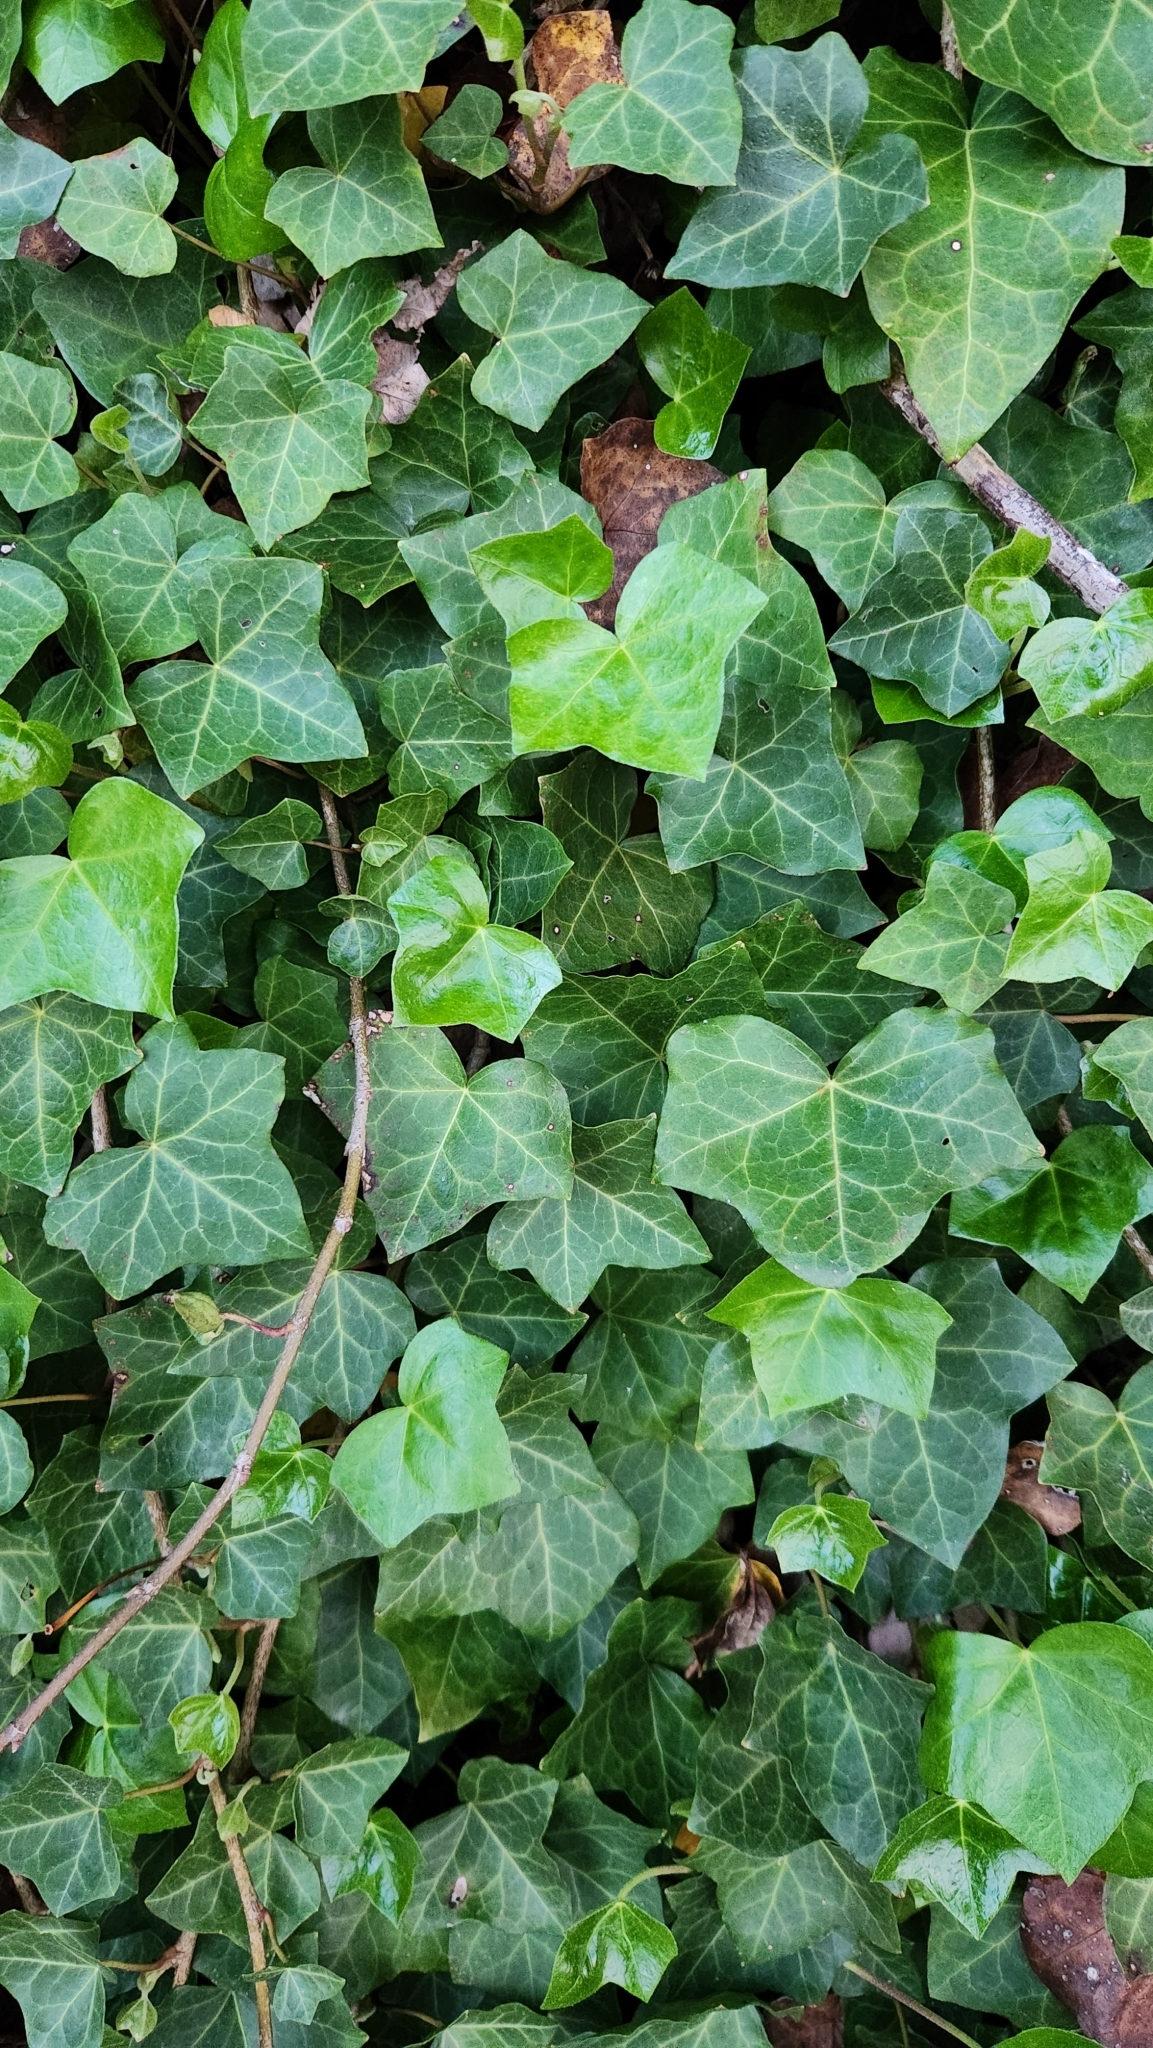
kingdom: Plantae
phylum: Tracheophyta
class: Magnoliopsida
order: Apiales
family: Araliaceae
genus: Hedera
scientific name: Hedera helix
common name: Ivy
